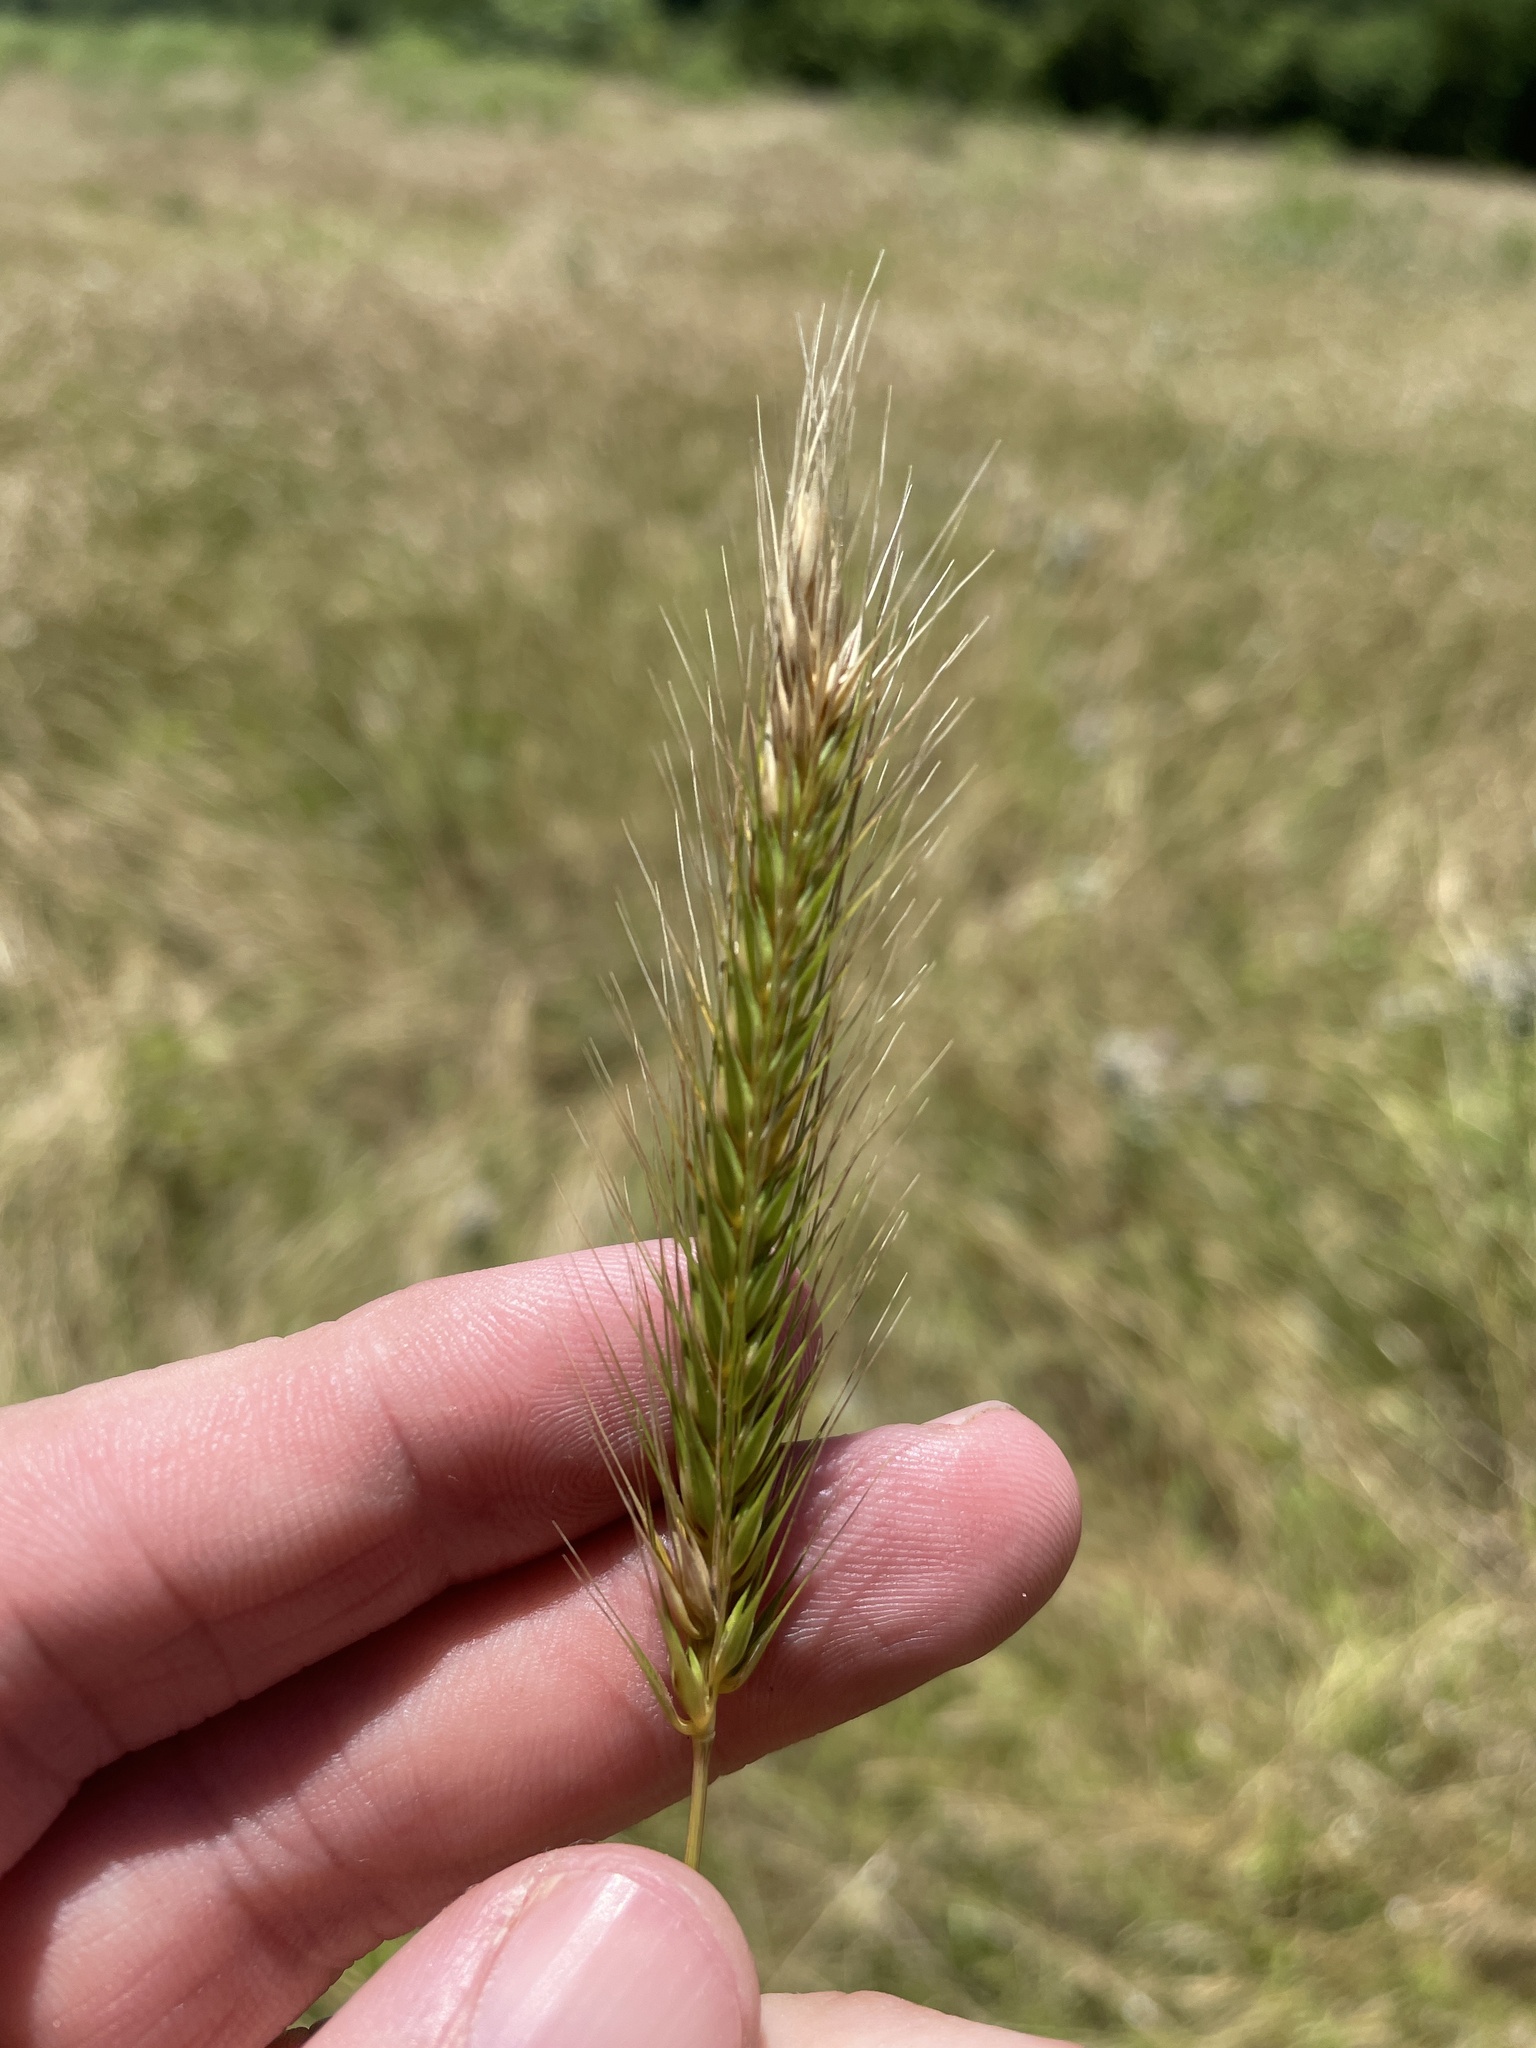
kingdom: Plantae
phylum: Tracheophyta
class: Liliopsida
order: Poales
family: Poaceae
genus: Hordeum
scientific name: Hordeum pusillum
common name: Little barley
